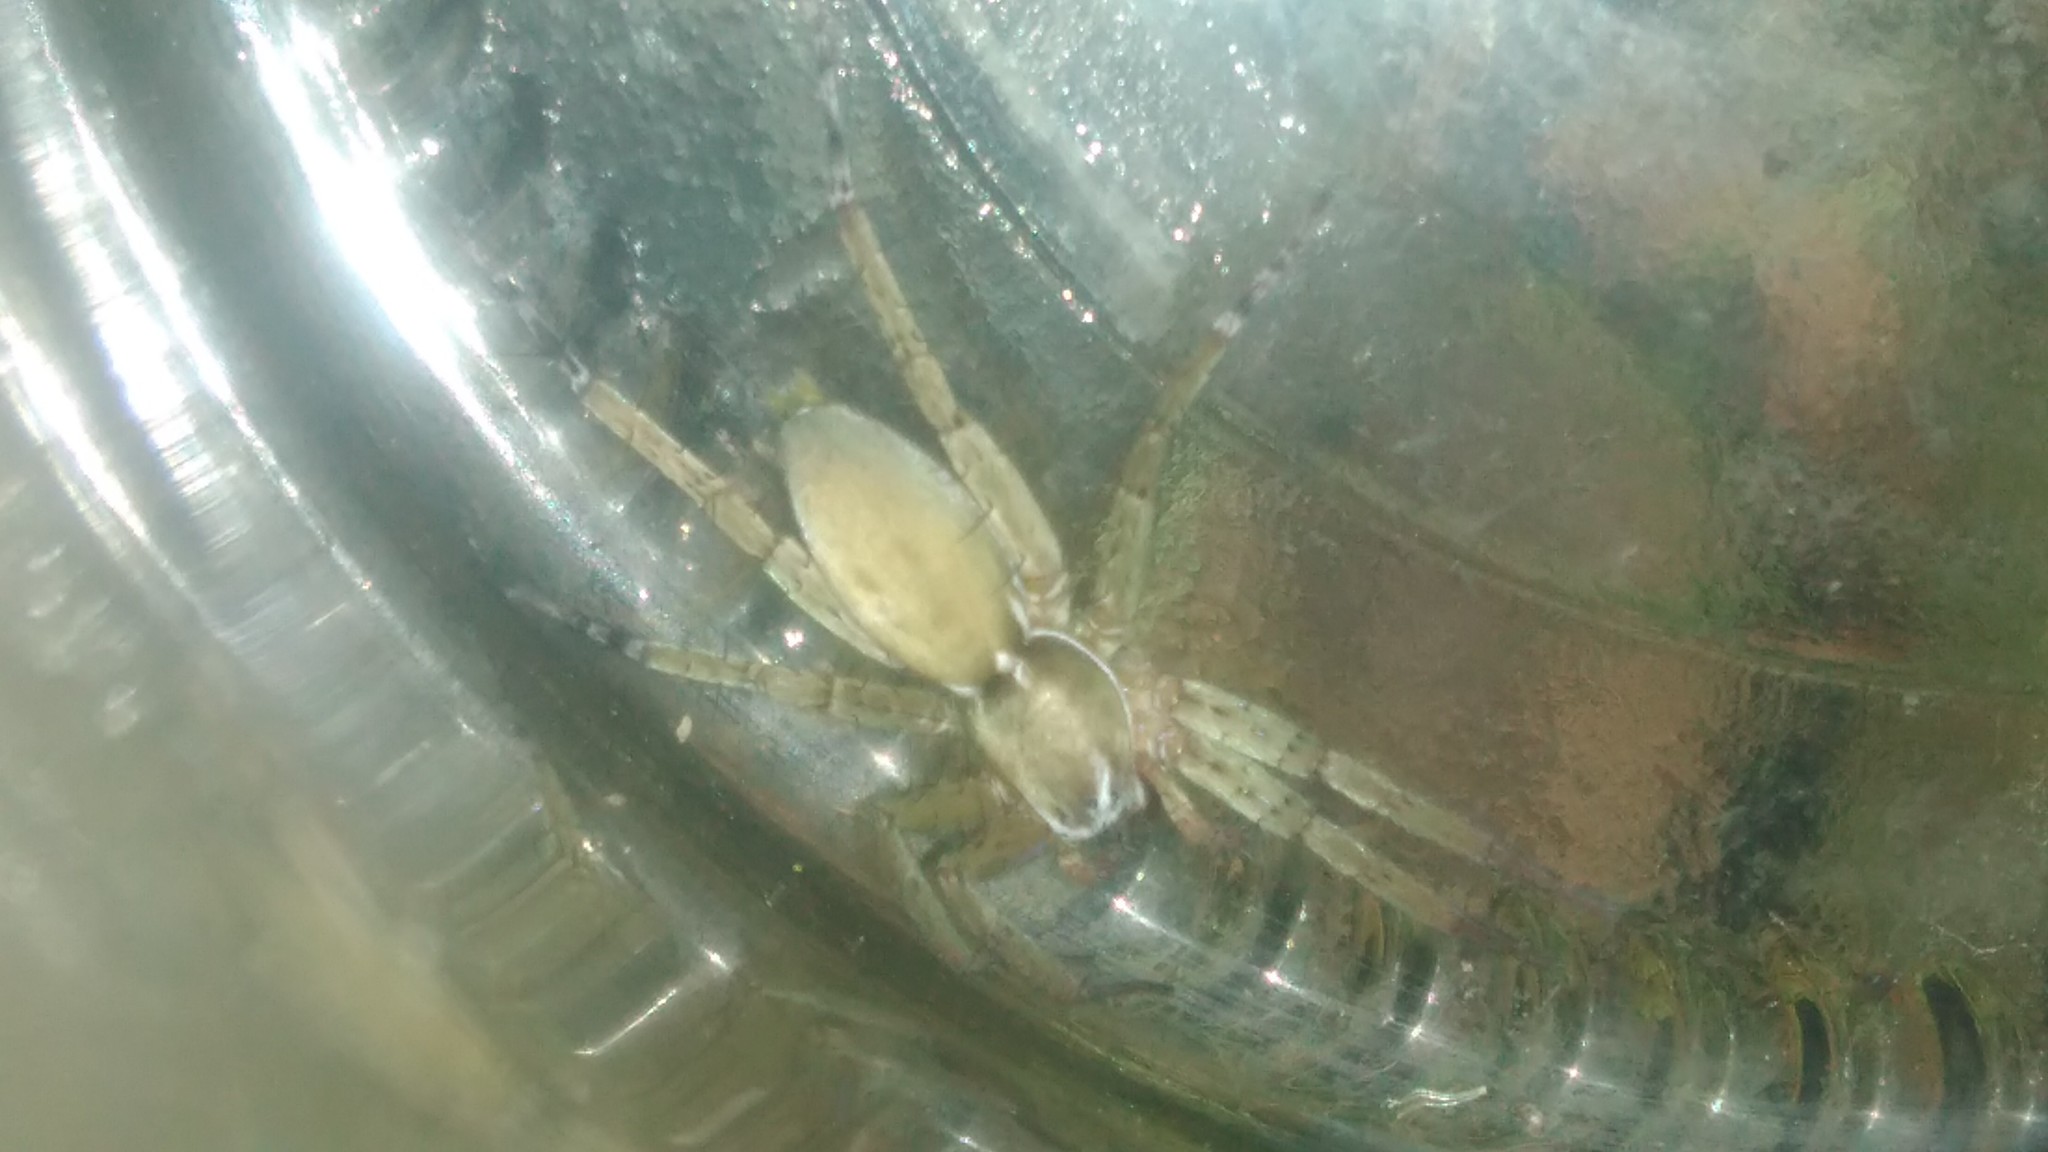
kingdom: Animalia
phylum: Arthropoda
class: Arachnida
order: Araneae
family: Anyphaenidae
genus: Arachosia
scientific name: Arachosia proseni
